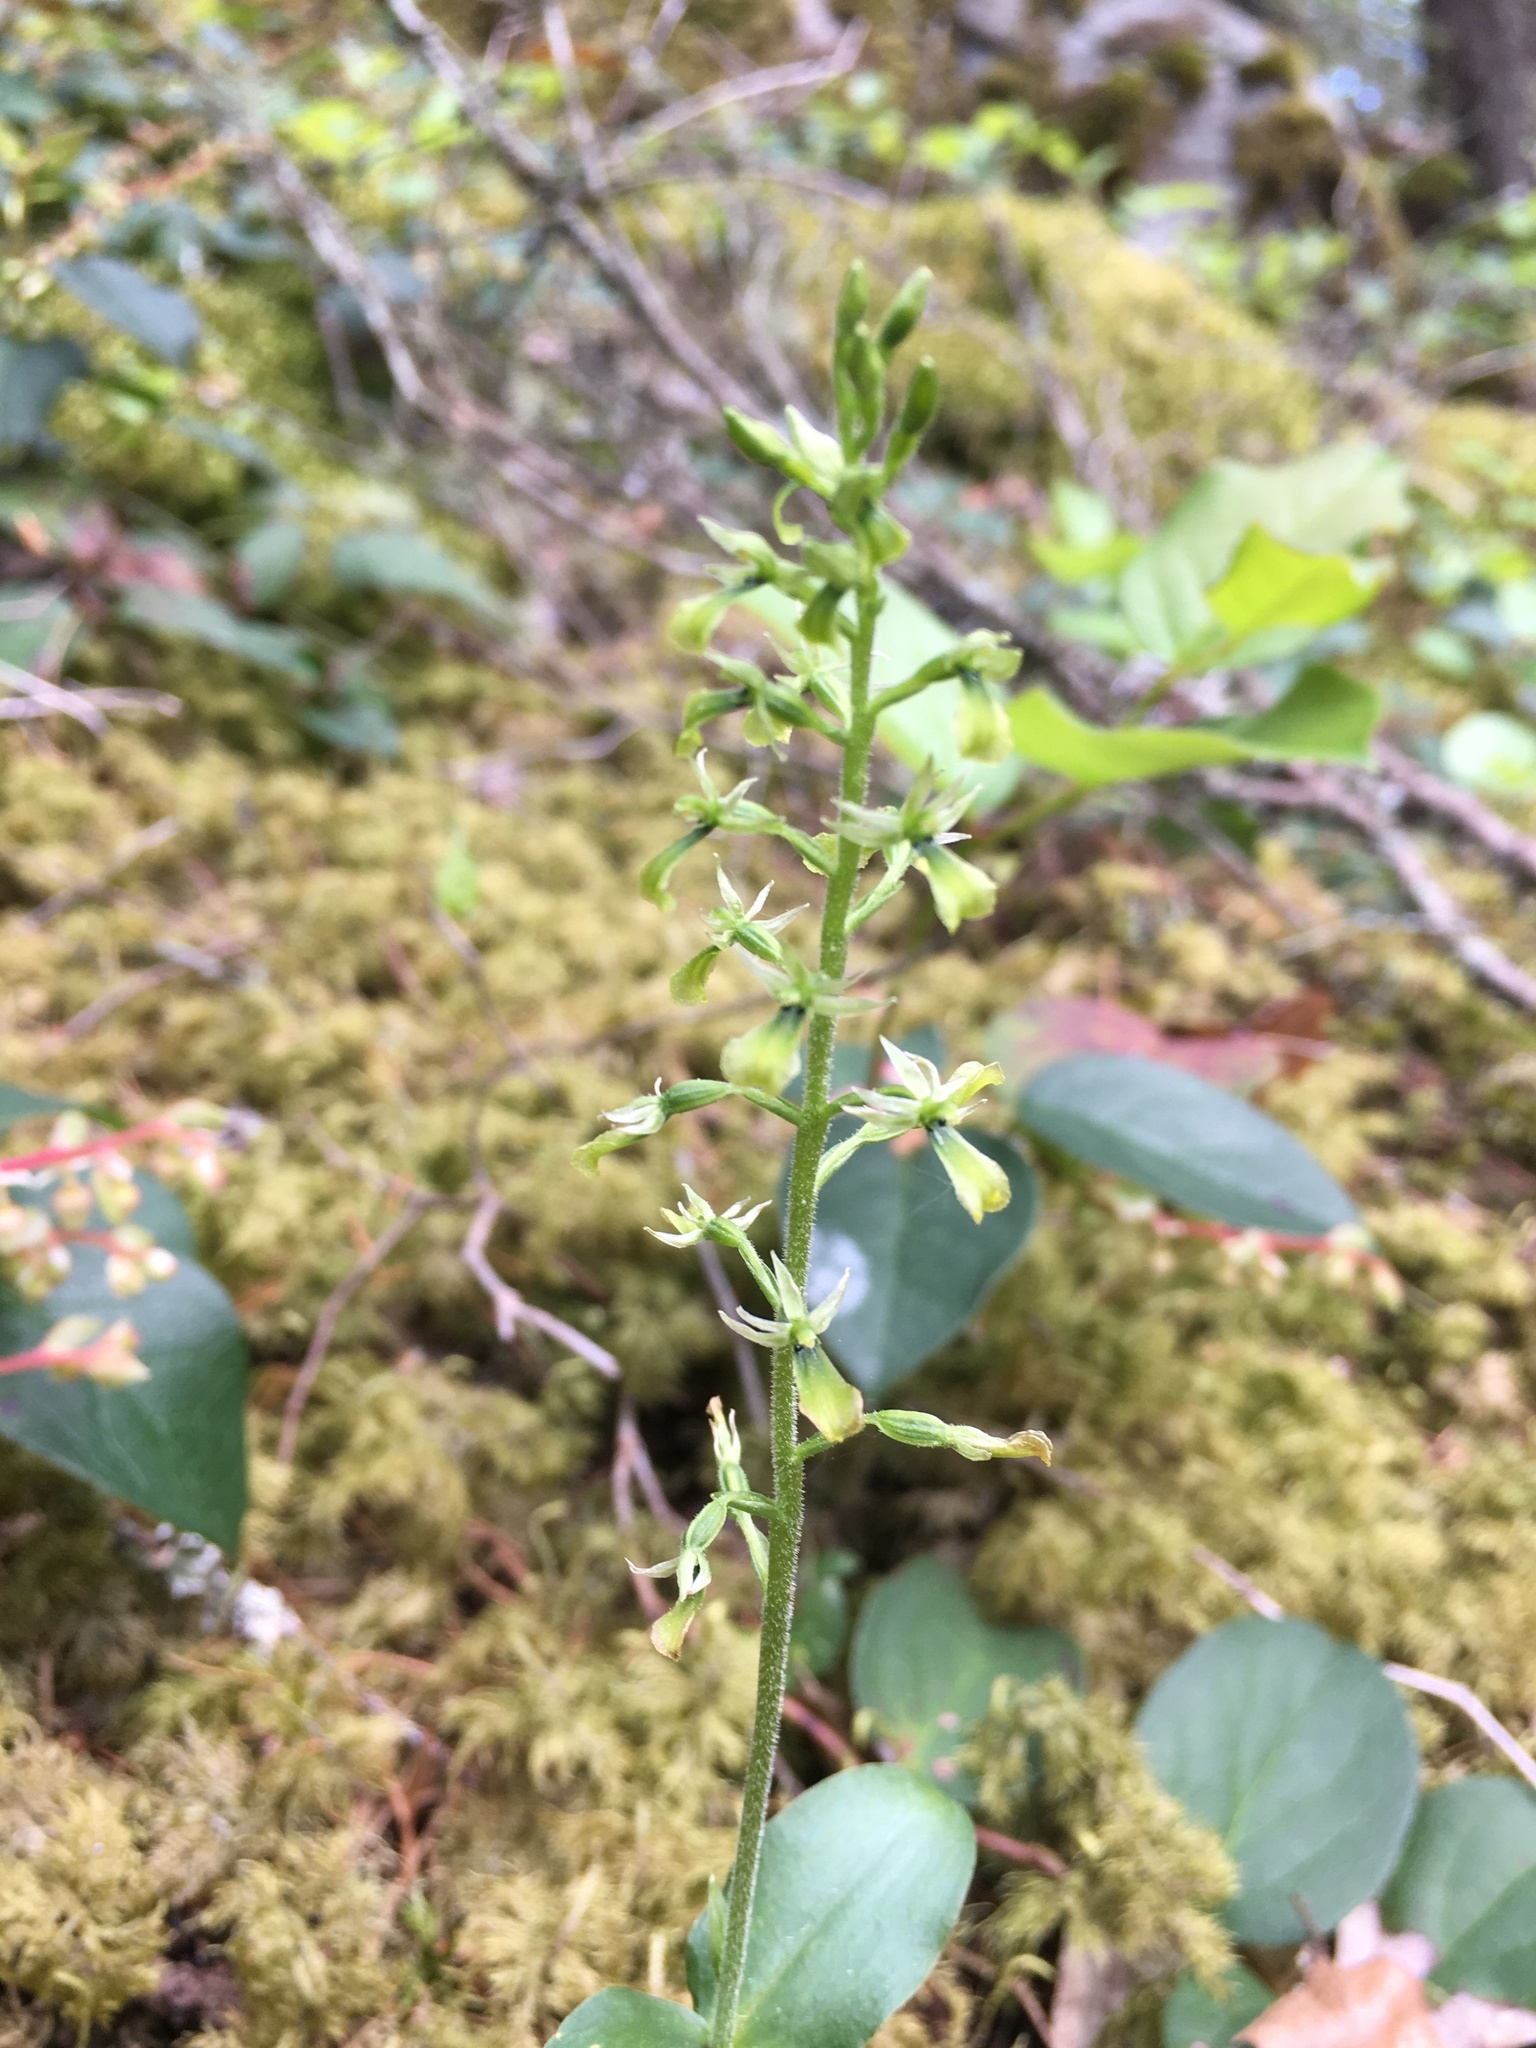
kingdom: Plantae
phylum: Tracheophyta
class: Liliopsida
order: Asparagales
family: Orchidaceae
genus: Neottia
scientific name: Neottia banksiana
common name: Northwestern twayblade
